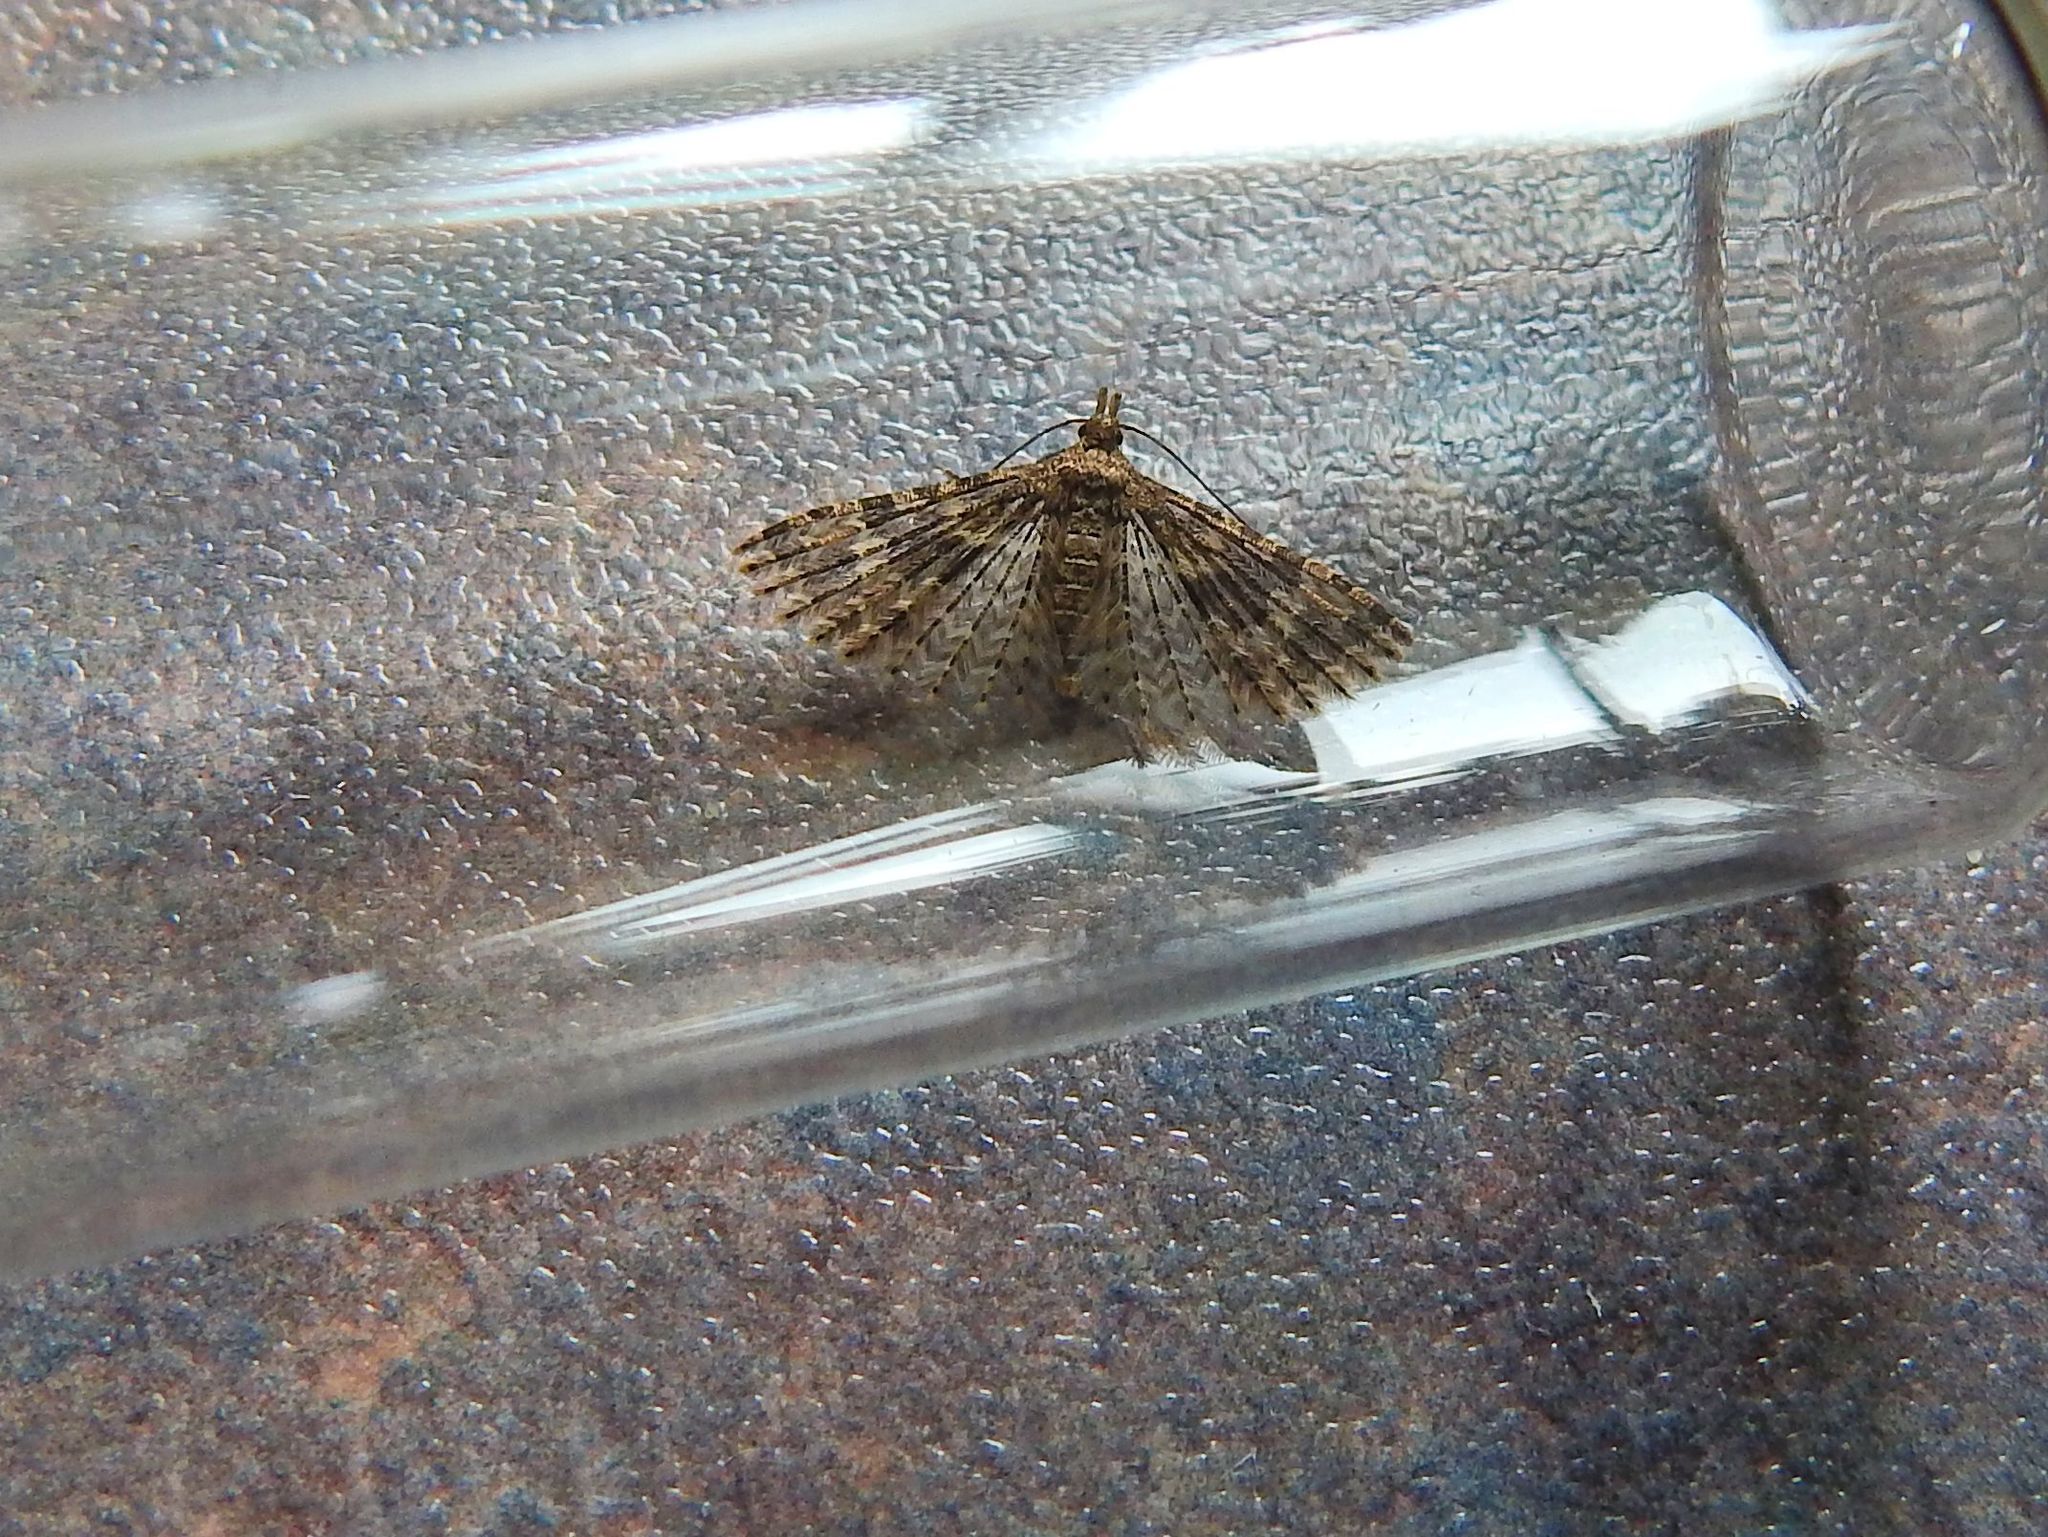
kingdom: Animalia
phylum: Arthropoda
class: Insecta
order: Lepidoptera
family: Alucitidae
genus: Alucita
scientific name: Alucita hexadactyla
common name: Twenty-plume moth
